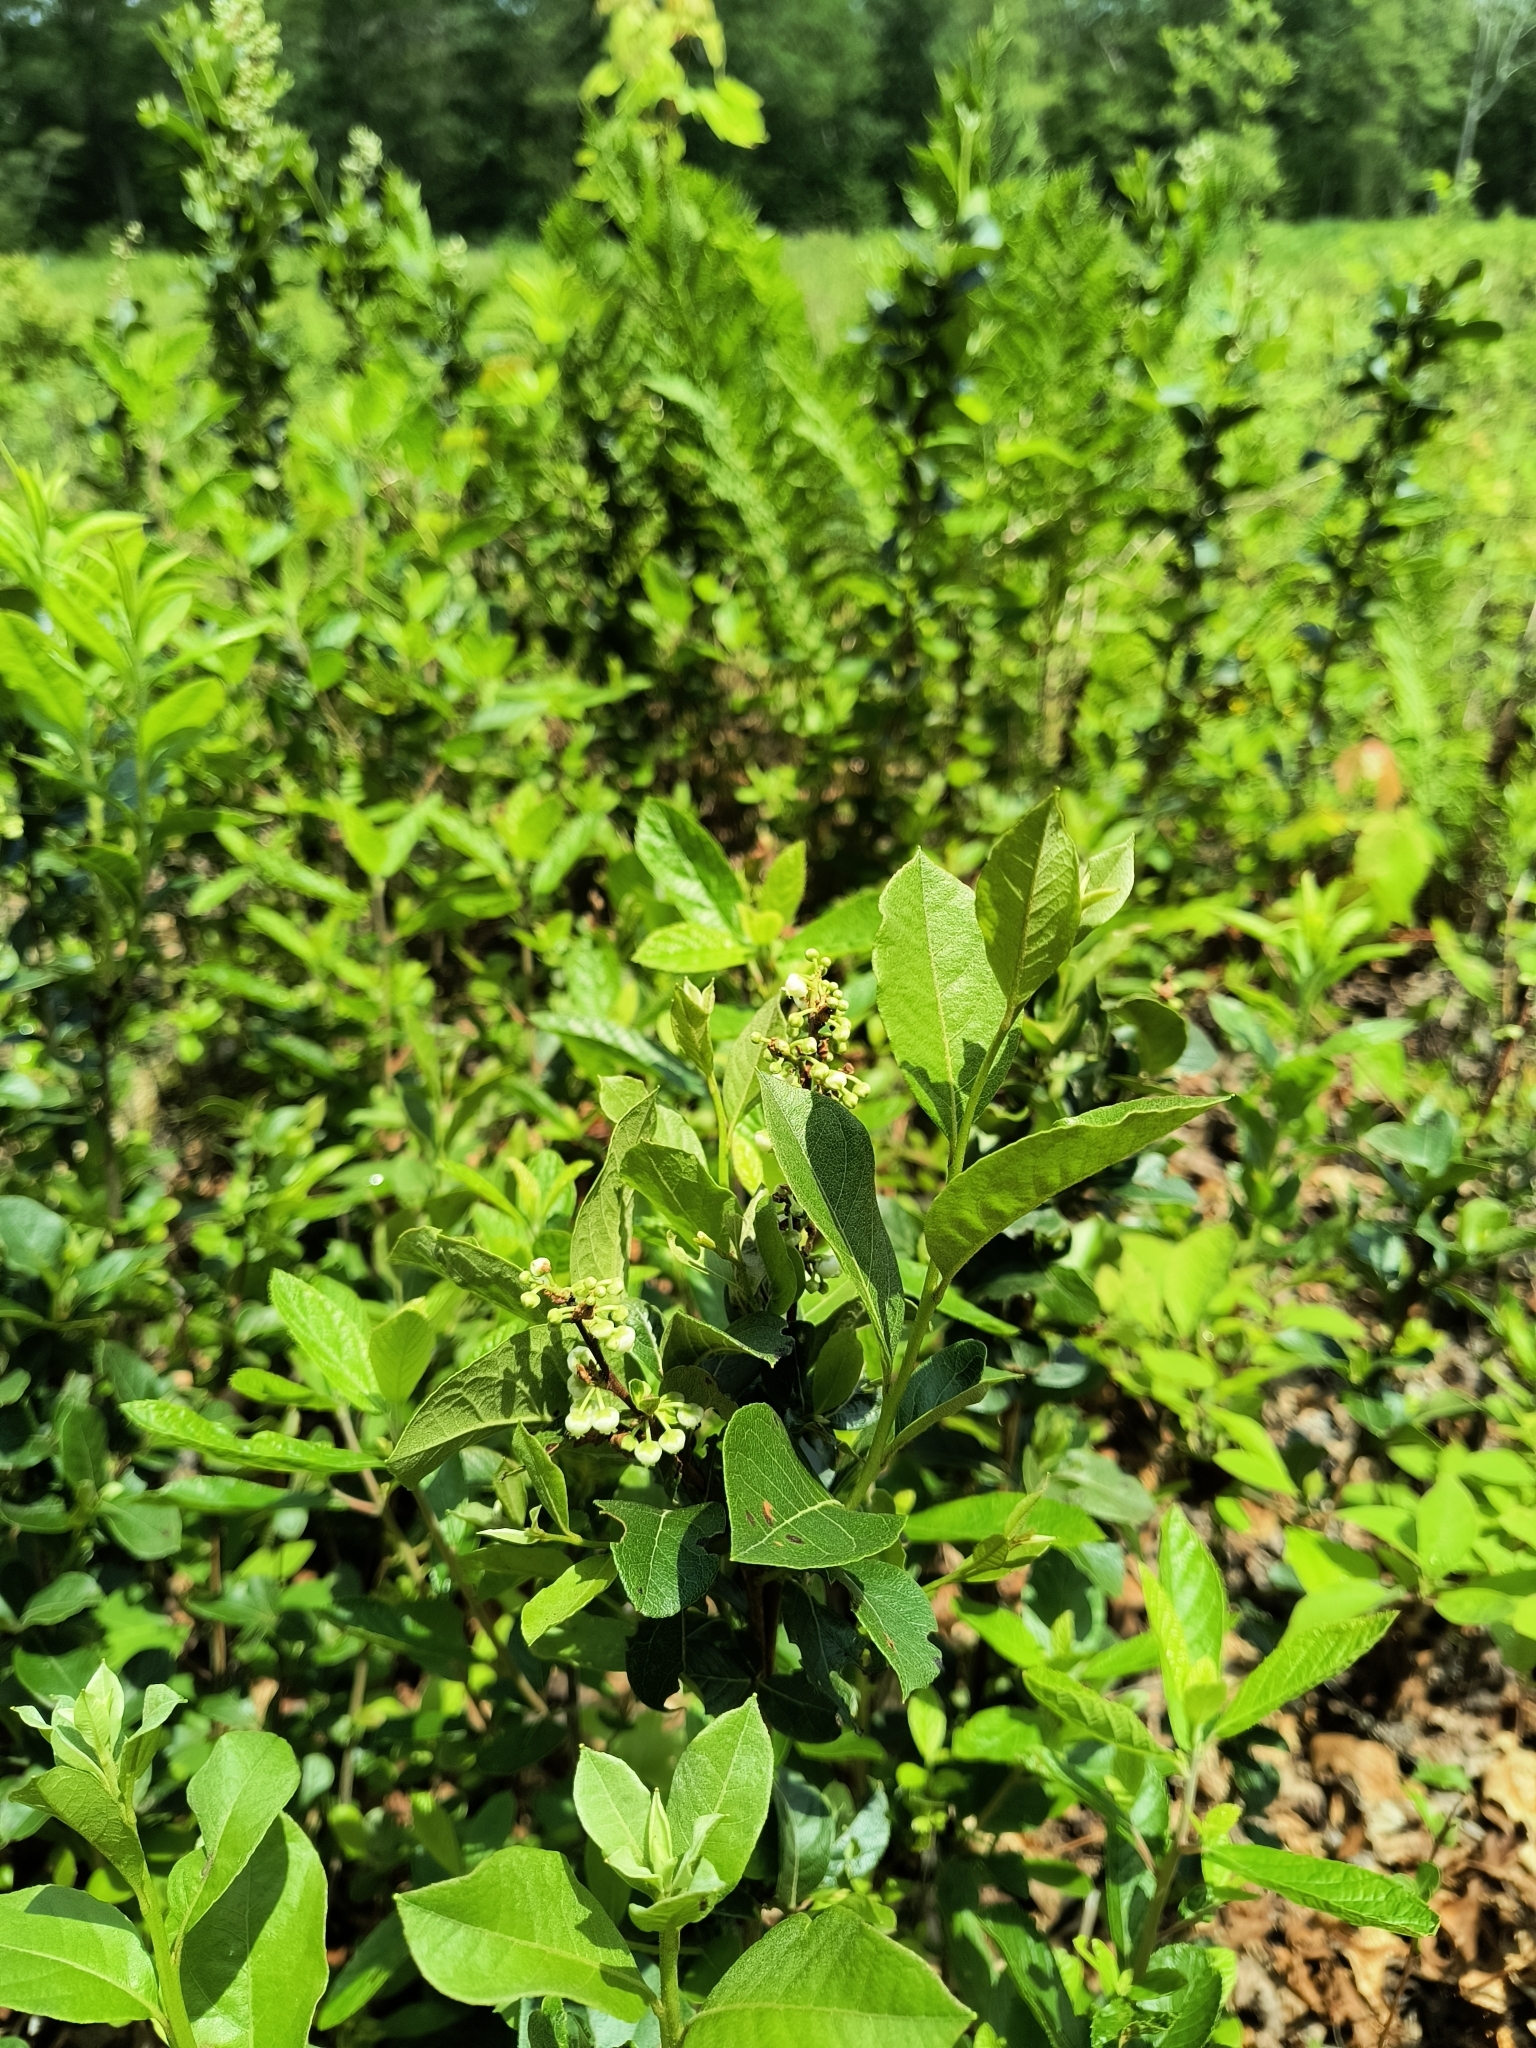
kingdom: Plantae
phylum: Tracheophyta
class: Magnoliopsida
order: Ericales
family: Ericaceae
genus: Lyonia
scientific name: Lyonia ligustrina
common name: Maleberry
